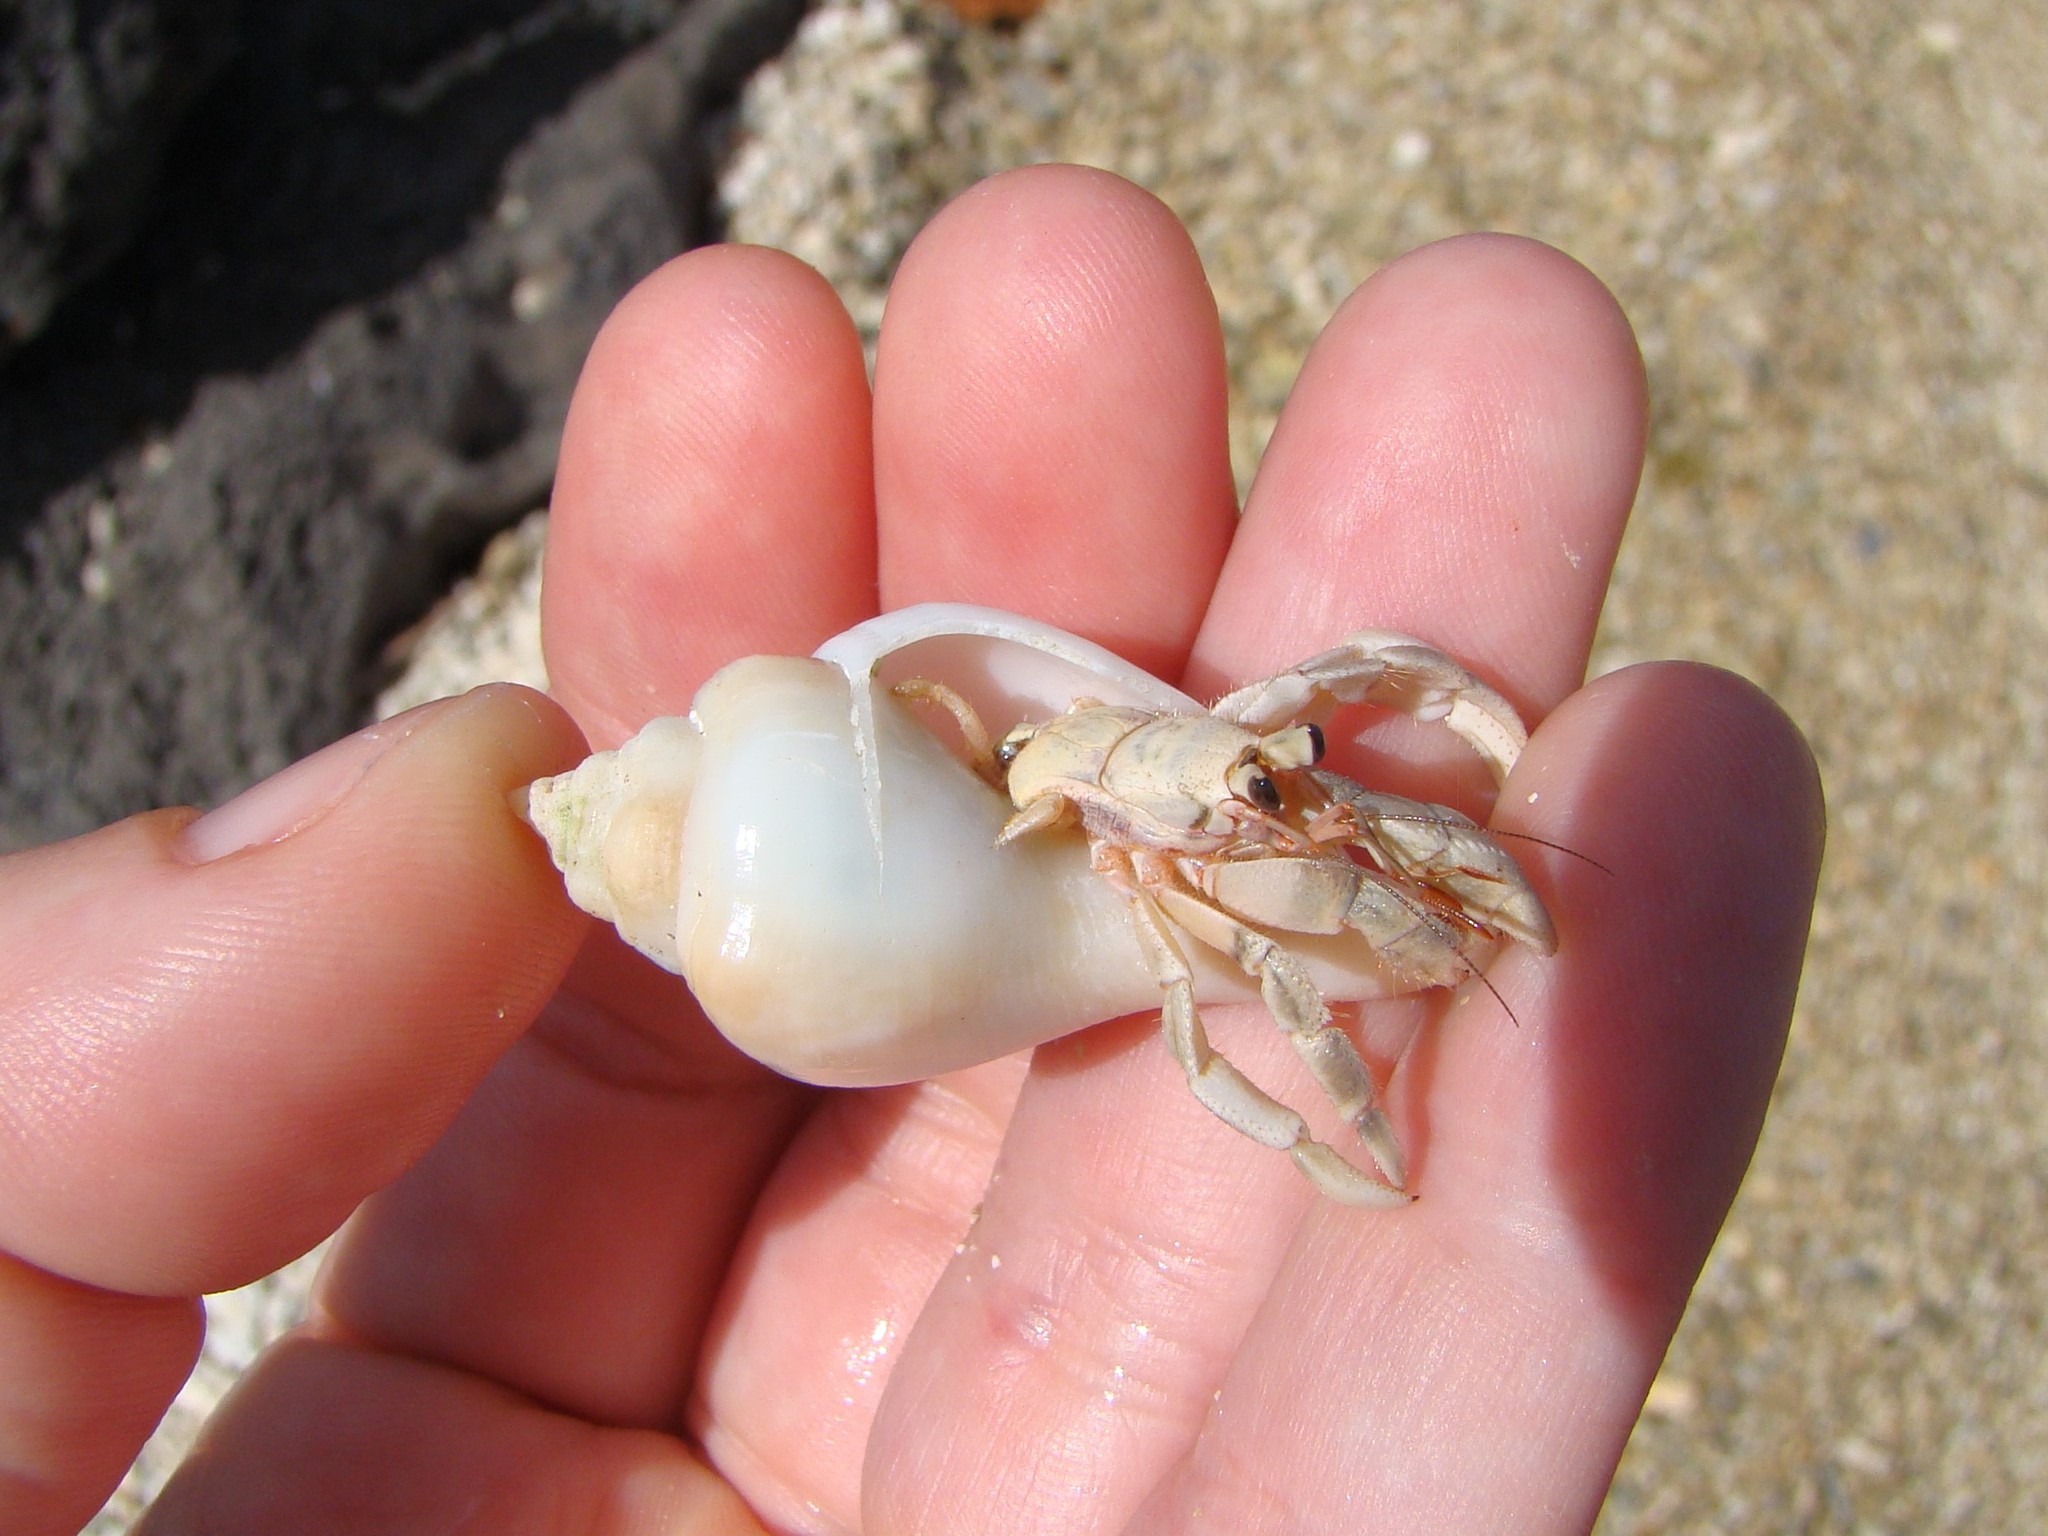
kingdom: Animalia
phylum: Arthropoda
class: Malacostraca
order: Decapoda
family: Coenobitidae
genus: Coenobita
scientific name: Coenobita rugosus
